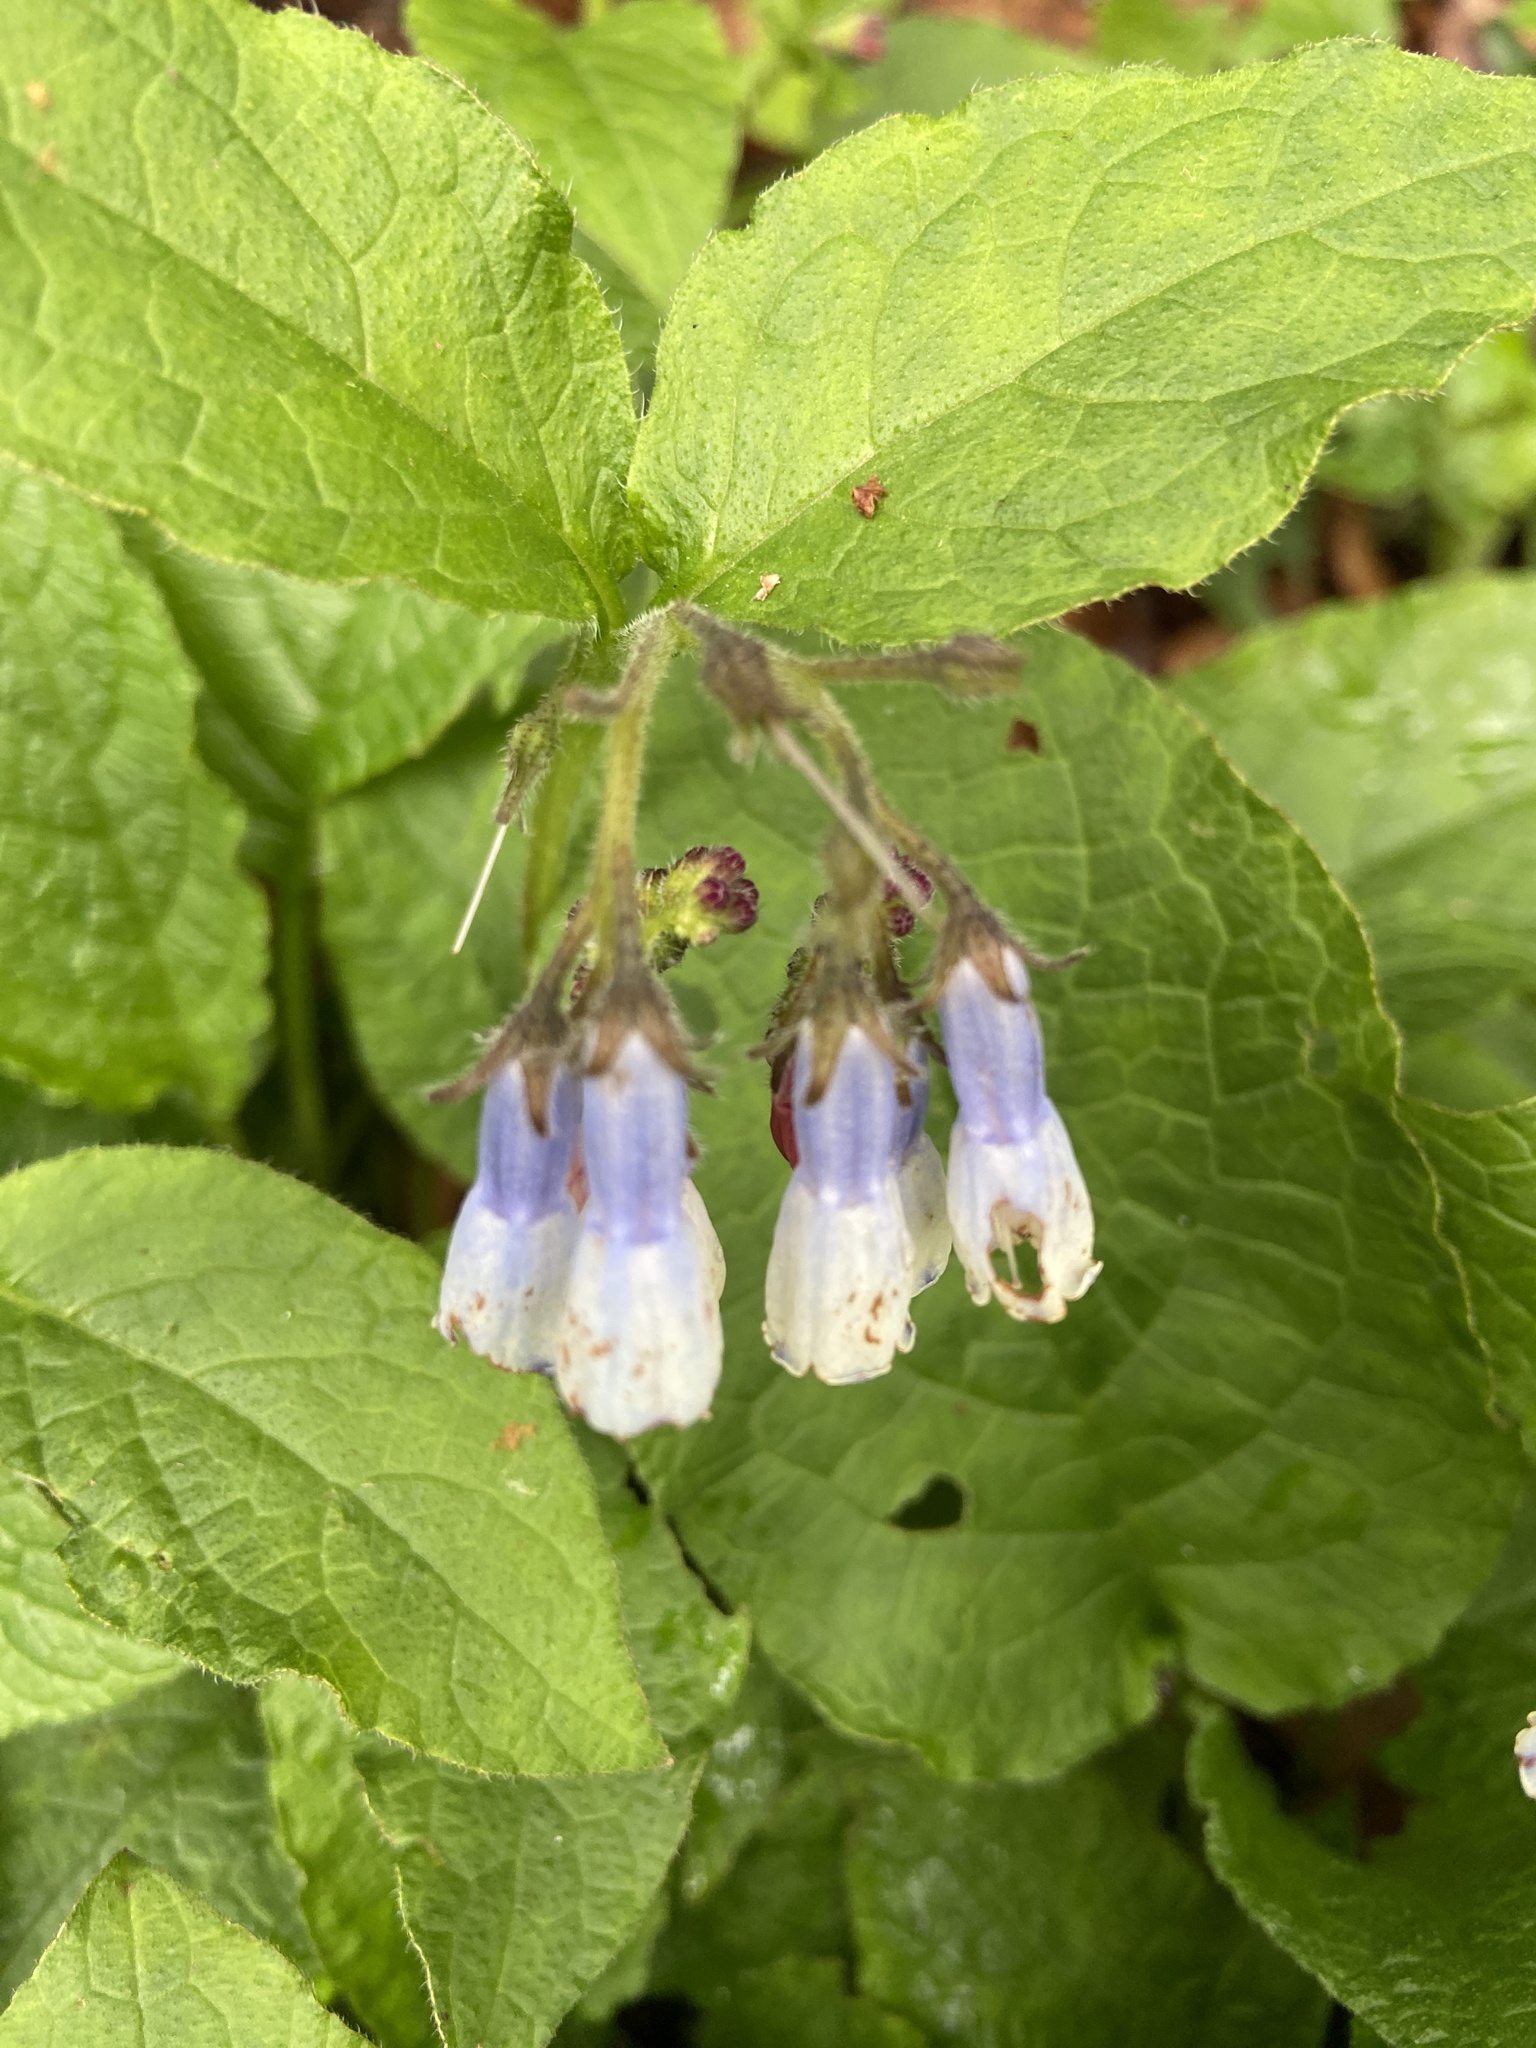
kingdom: Plantae
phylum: Tracheophyta
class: Magnoliopsida
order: Boraginales
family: Boraginaceae
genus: Symphytum
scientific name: Symphytum hidcotense
